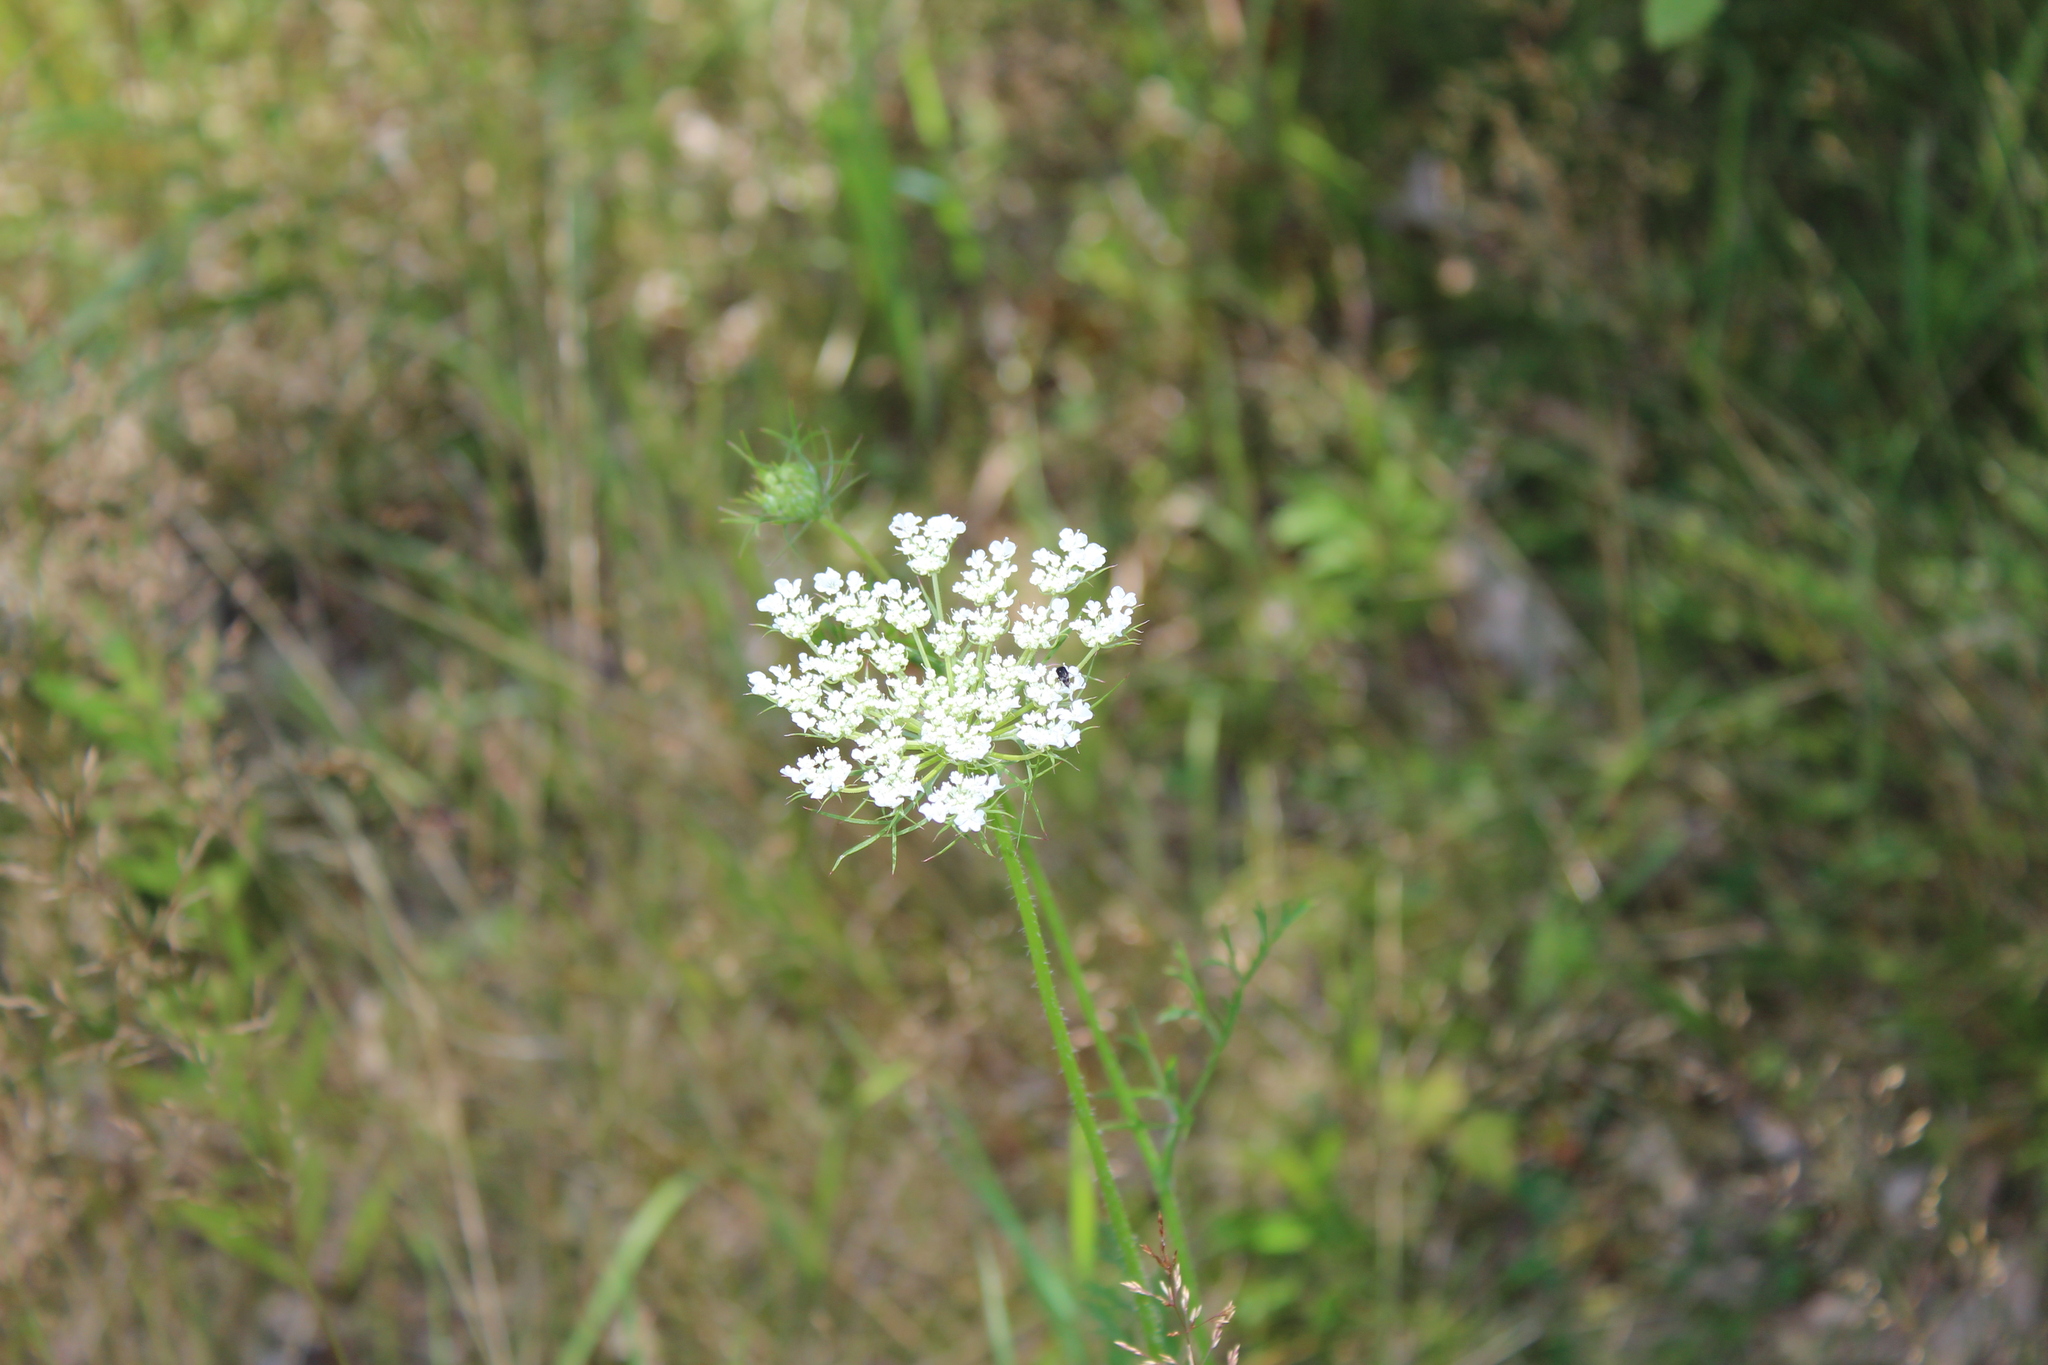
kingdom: Plantae
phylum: Tracheophyta
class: Magnoliopsida
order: Apiales
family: Apiaceae
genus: Daucus
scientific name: Daucus carota
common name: Wild carrot
